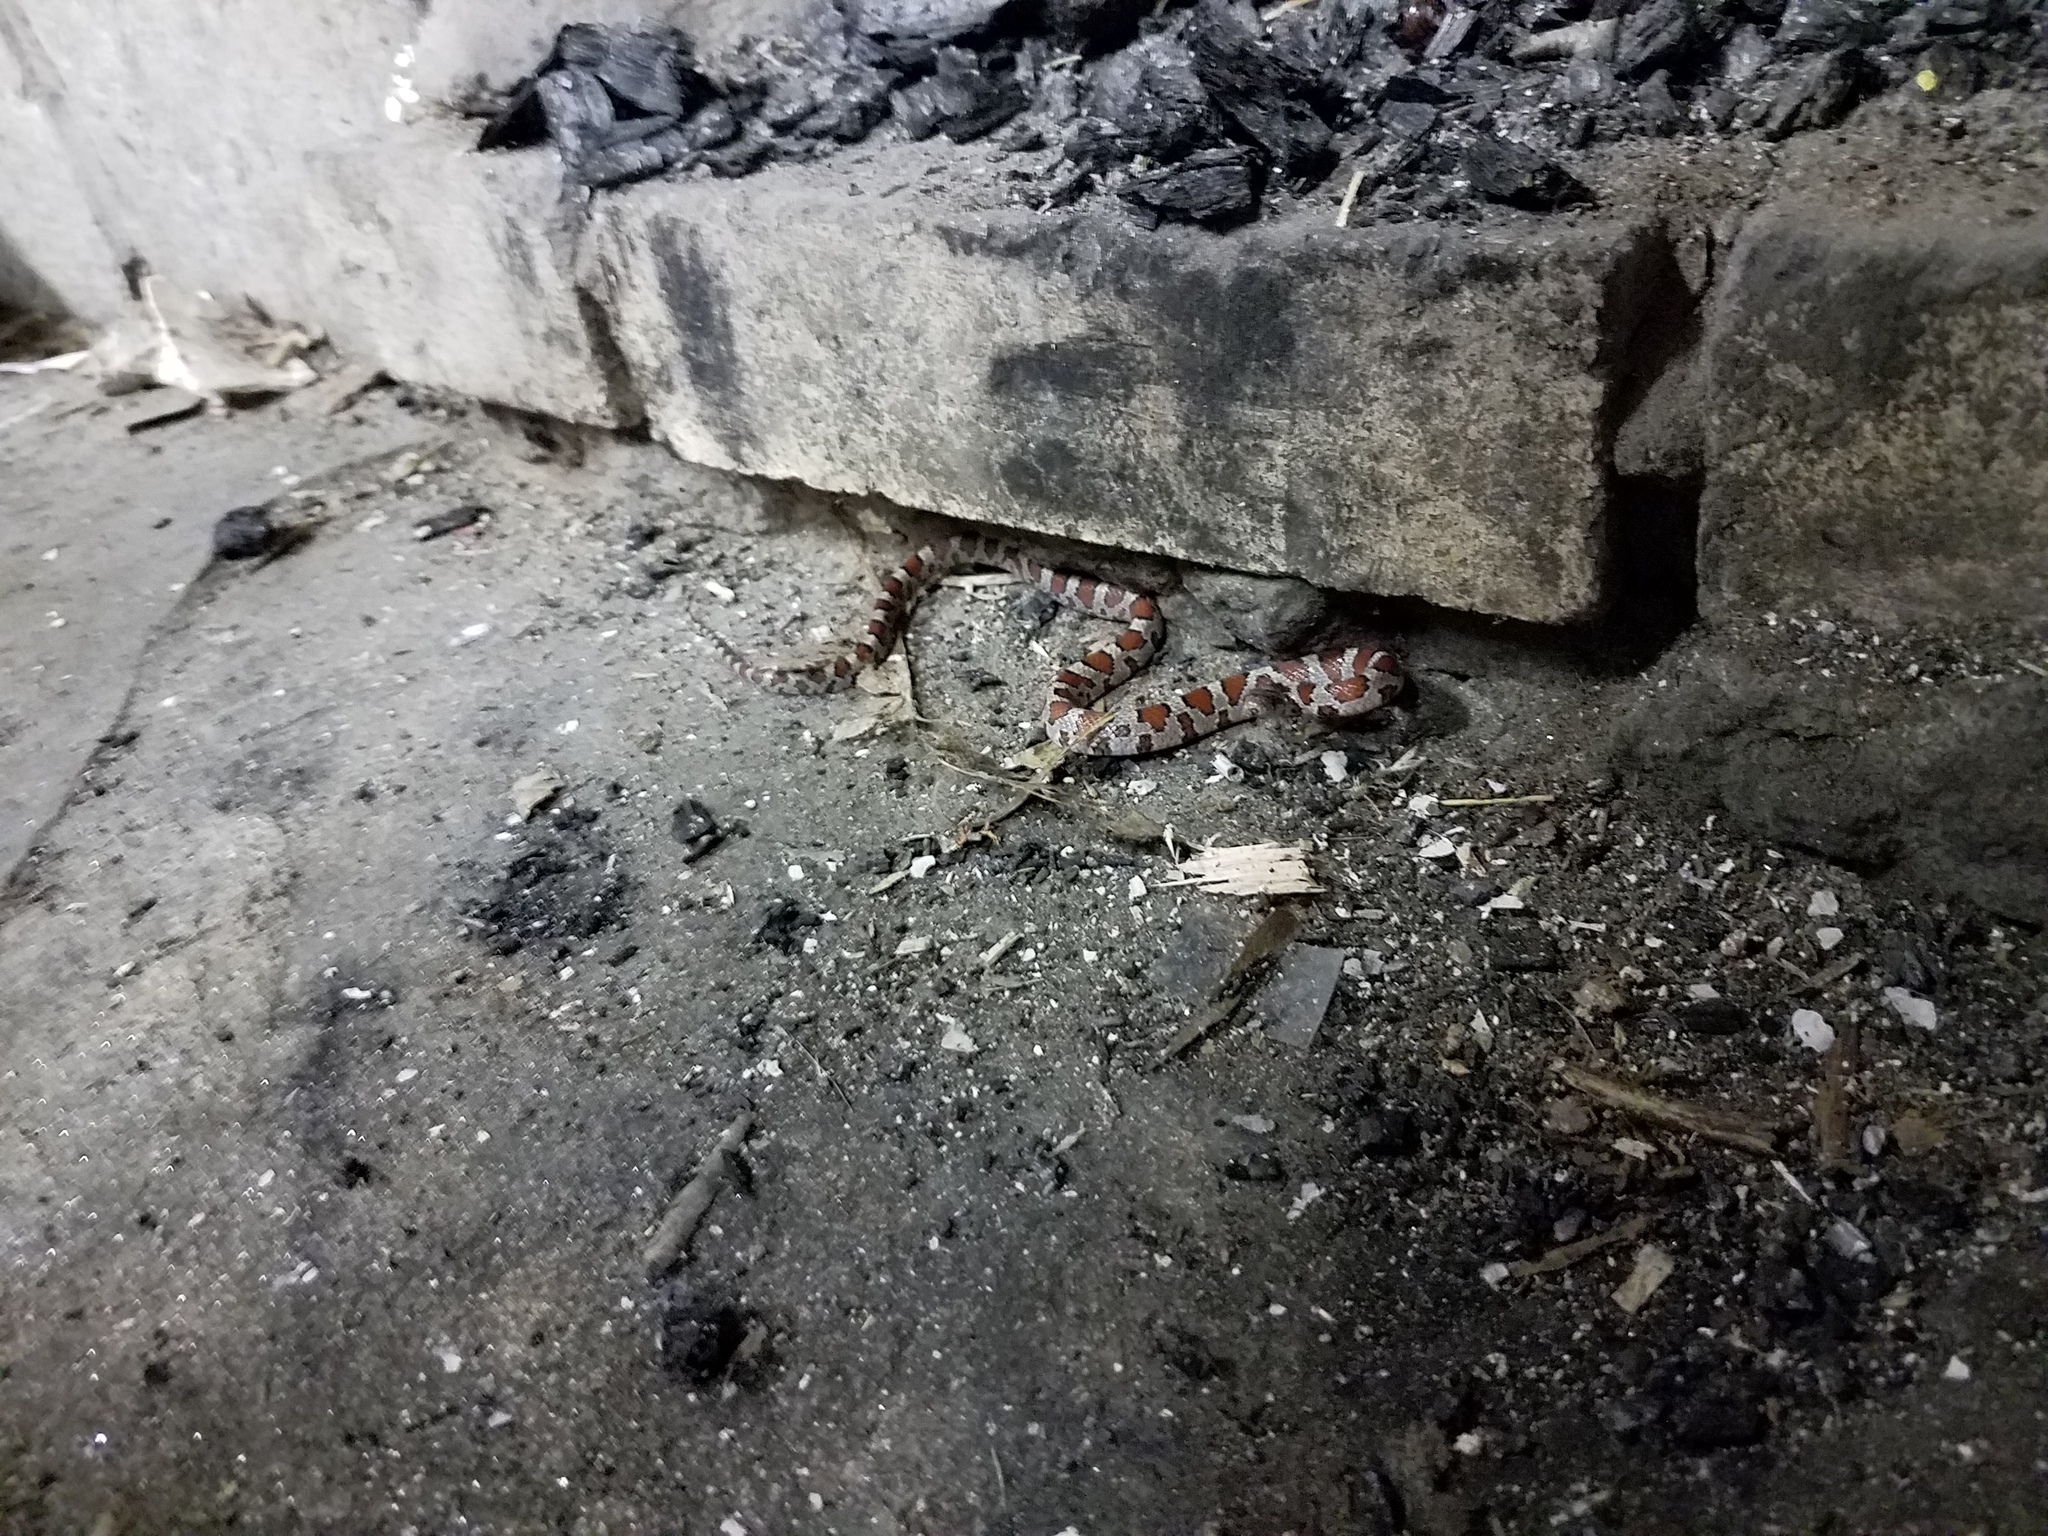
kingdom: Animalia
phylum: Chordata
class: Squamata
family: Colubridae
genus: Lampropeltis
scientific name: Lampropeltis triangulum
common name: Eastern milksnake
